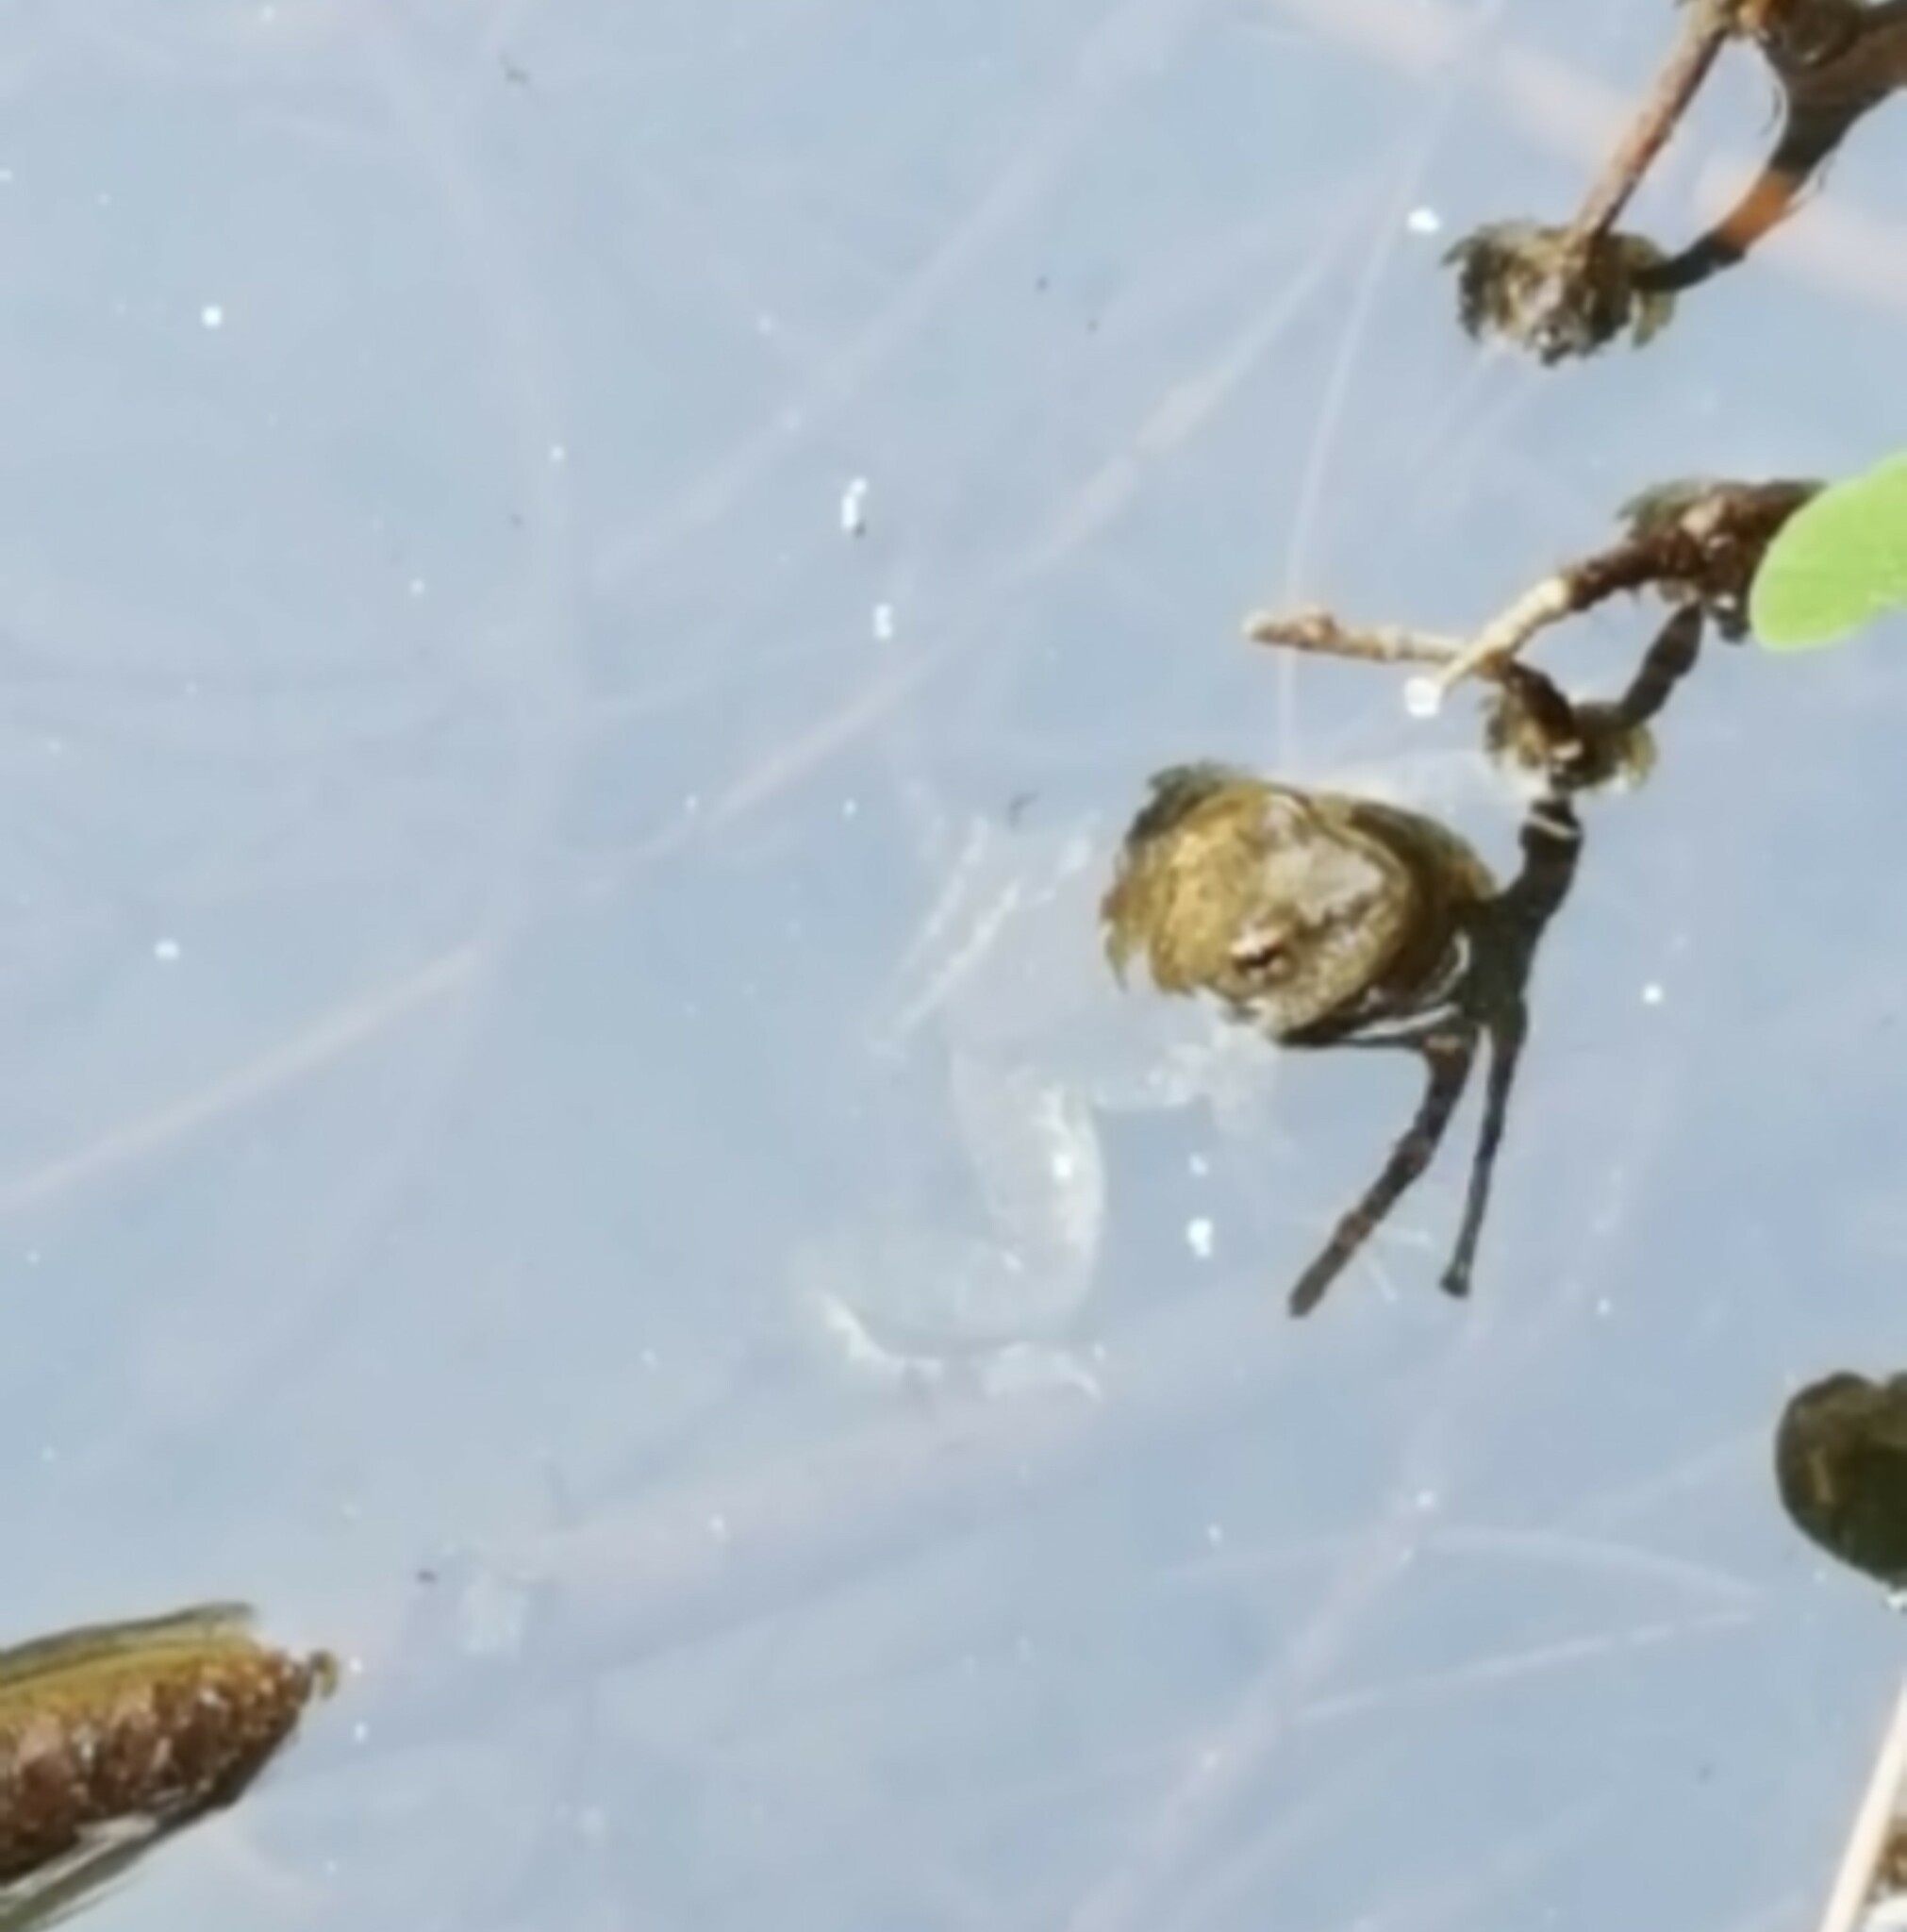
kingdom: Animalia
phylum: Chordata
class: Amphibia
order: Anura
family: Ranidae
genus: Rana
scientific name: Rana boylii
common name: Foothill yellow-legged frog
